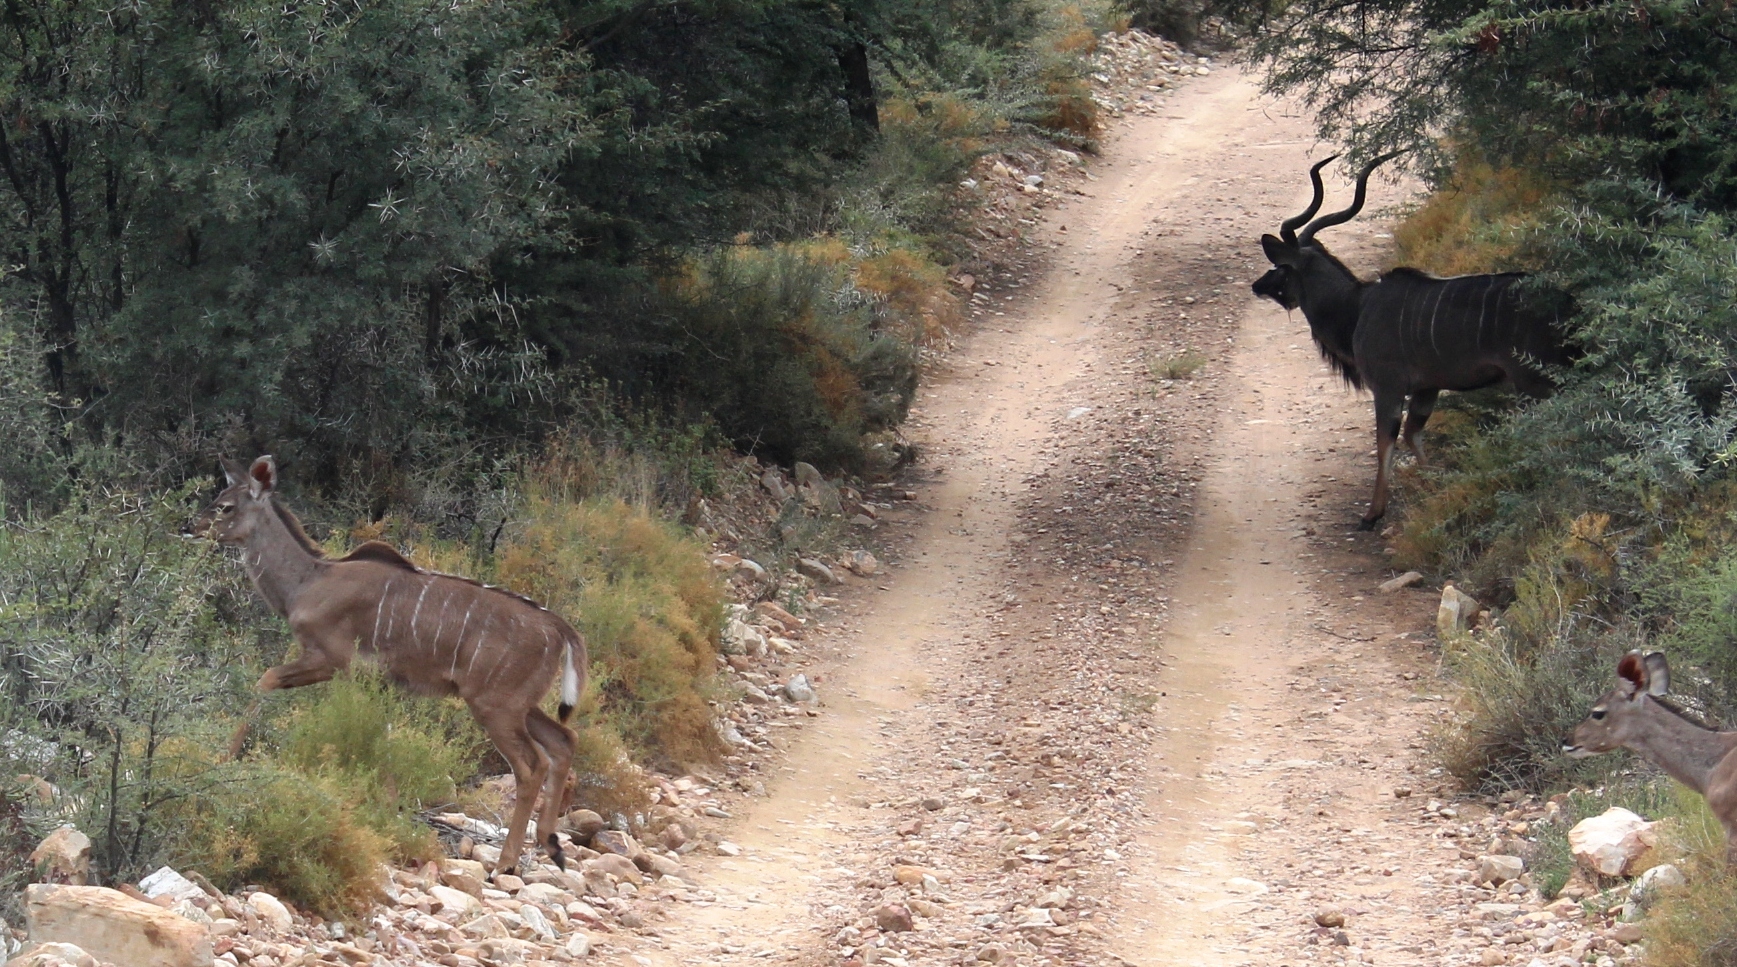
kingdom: Animalia
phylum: Chordata
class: Mammalia
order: Artiodactyla
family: Bovidae
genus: Tragelaphus
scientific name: Tragelaphus strepsiceros
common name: Greater kudu
